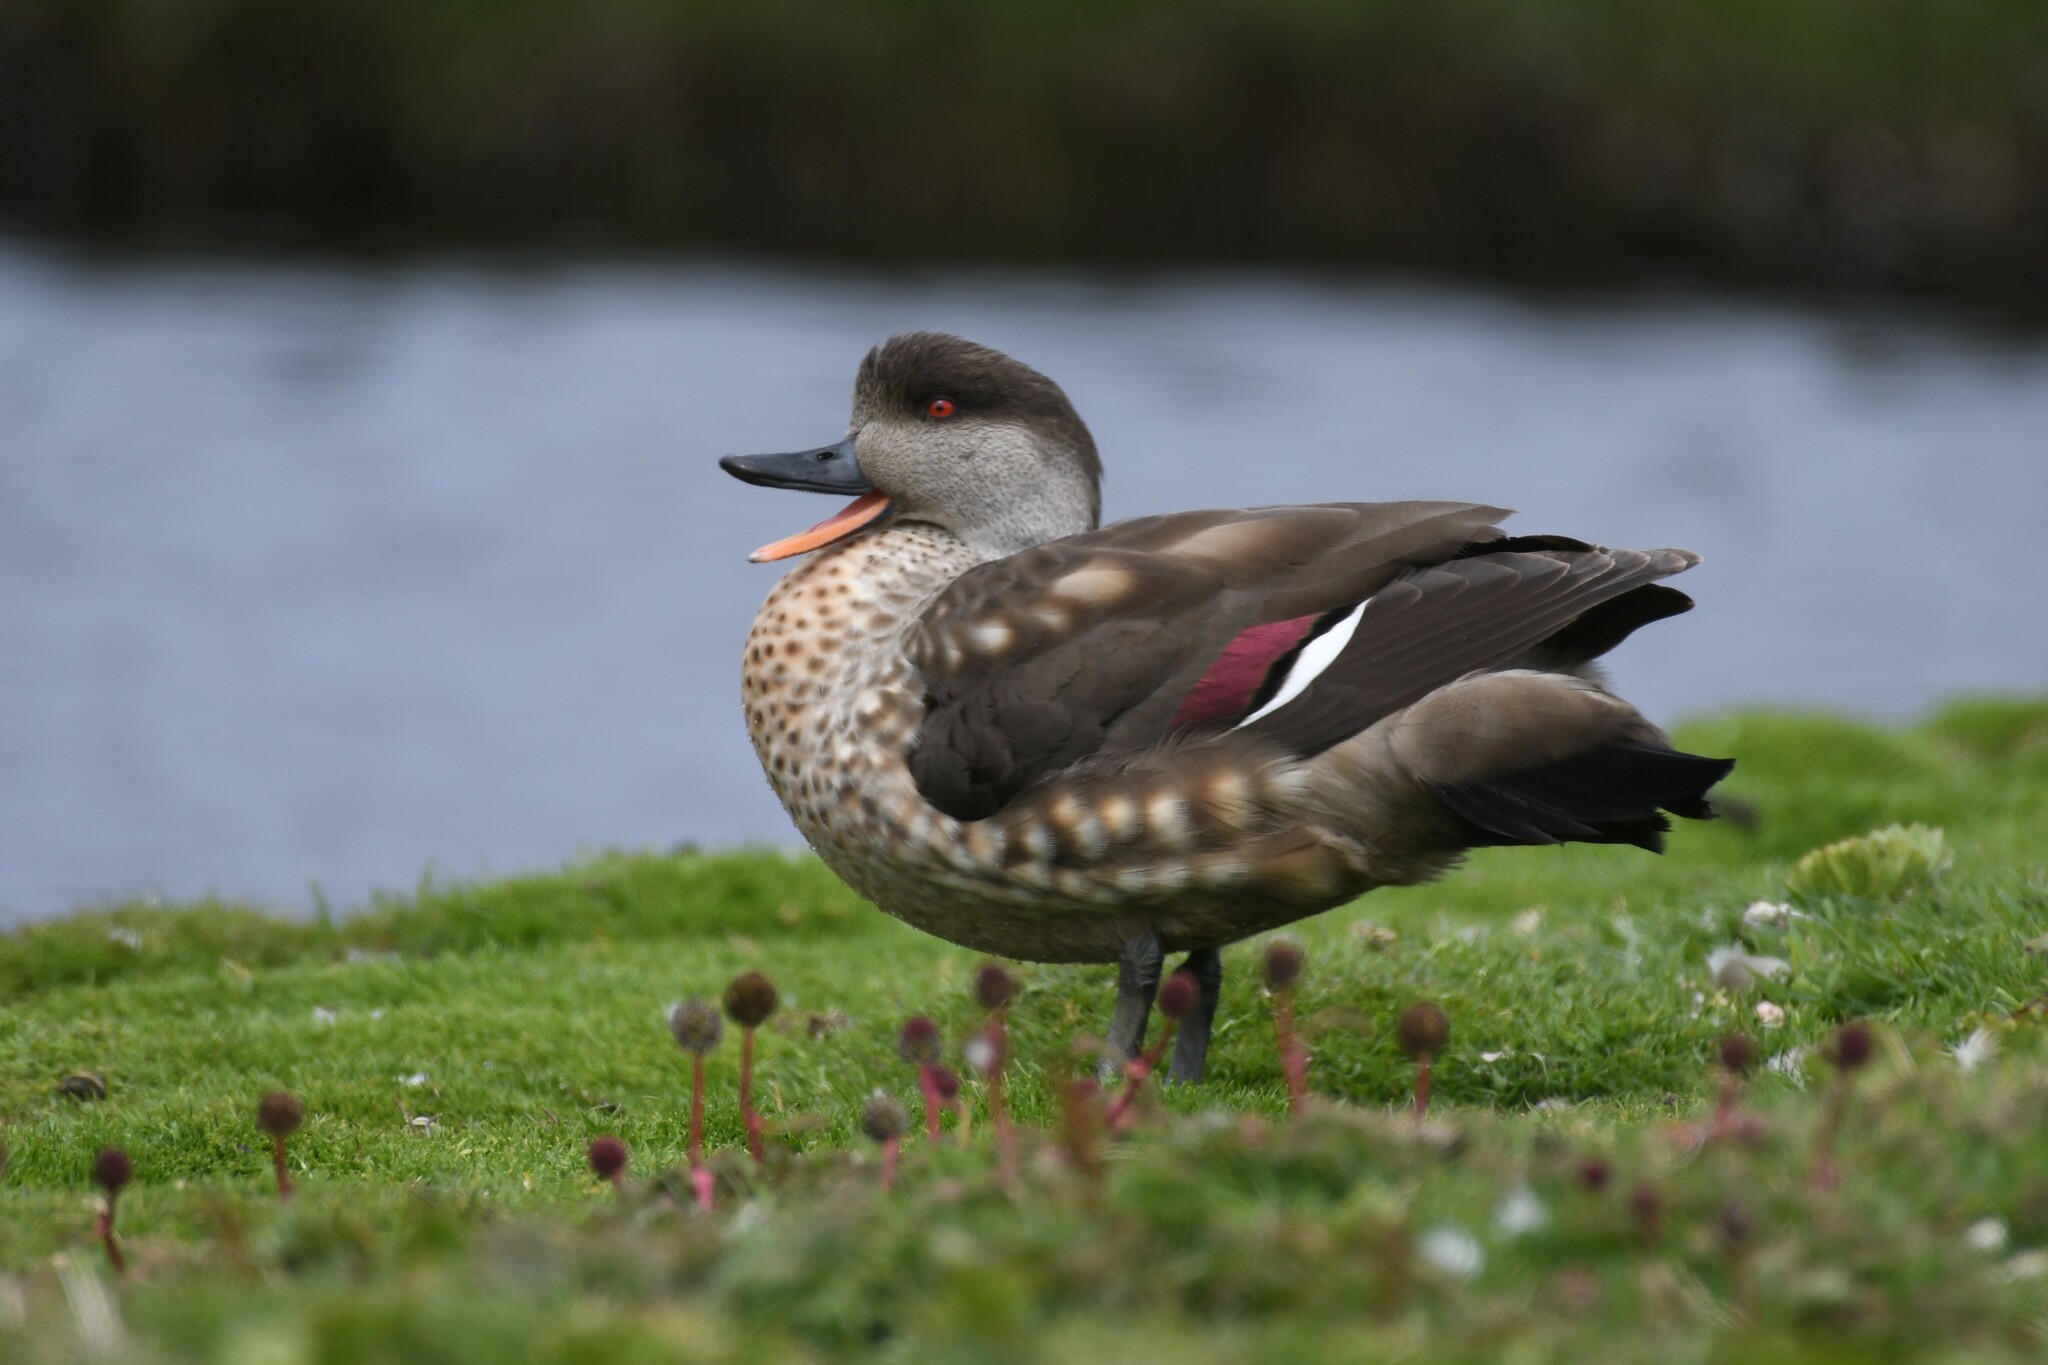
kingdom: Animalia
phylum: Chordata
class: Aves
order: Anseriformes
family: Anatidae
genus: Lophonetta
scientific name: Lophonetta specularioides
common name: Crested duck
